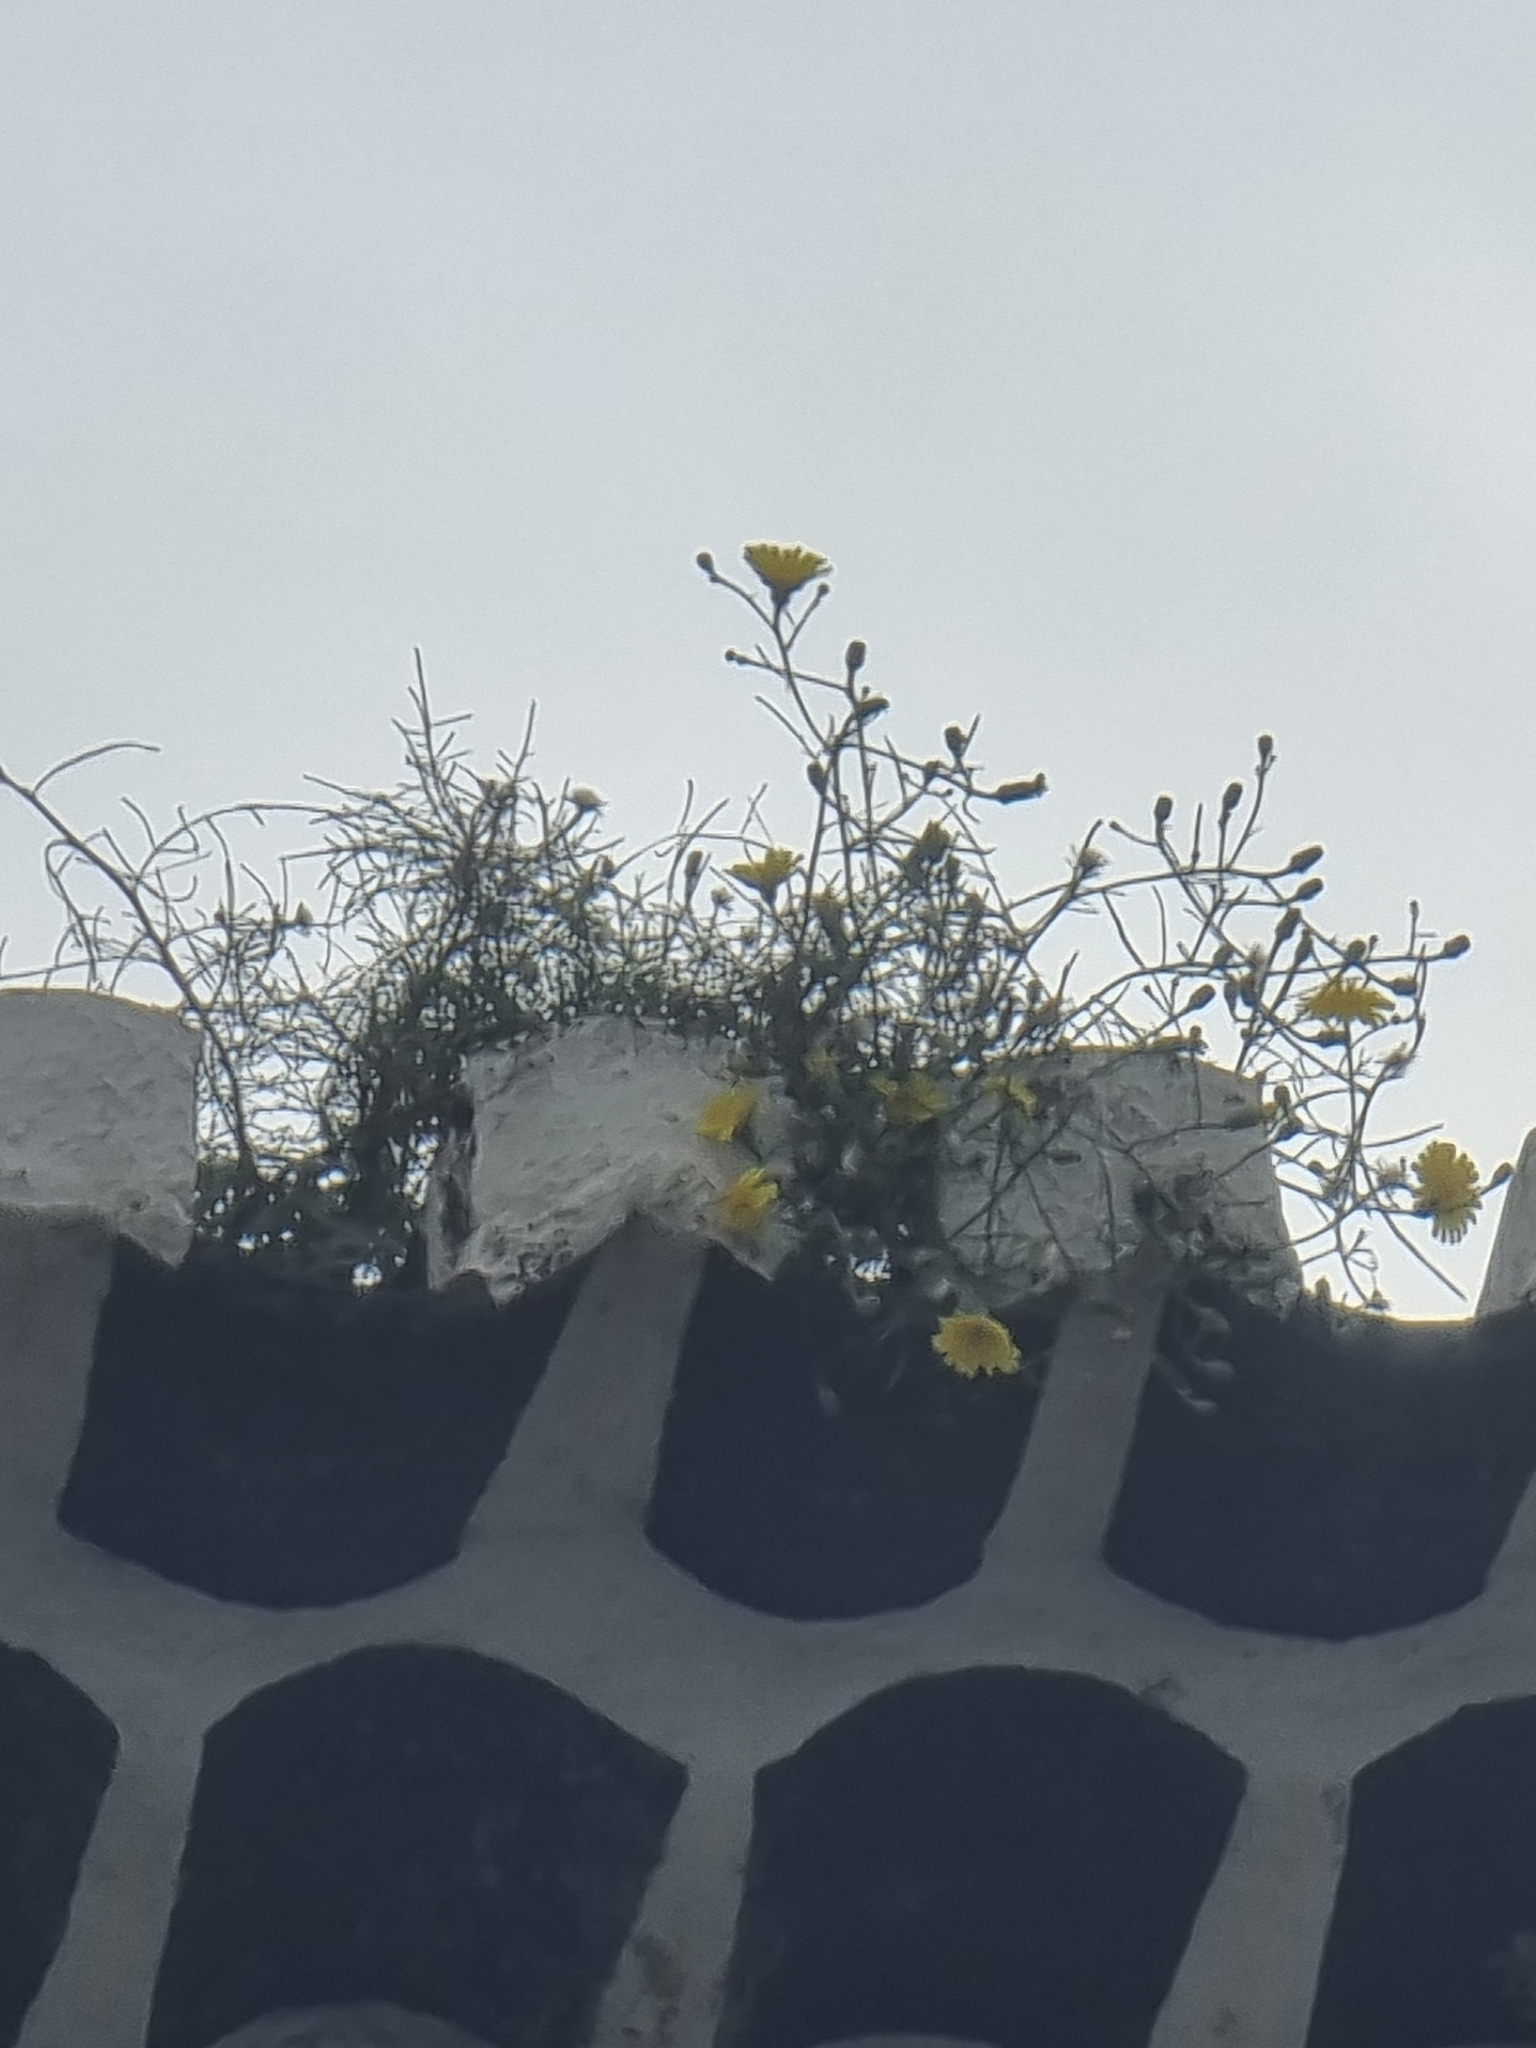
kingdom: Plantae
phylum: Tracheophyta
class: Magnoliopsida
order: Asterales
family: Asteraceae
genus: Tolpis
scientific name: Tolpis succulenta
